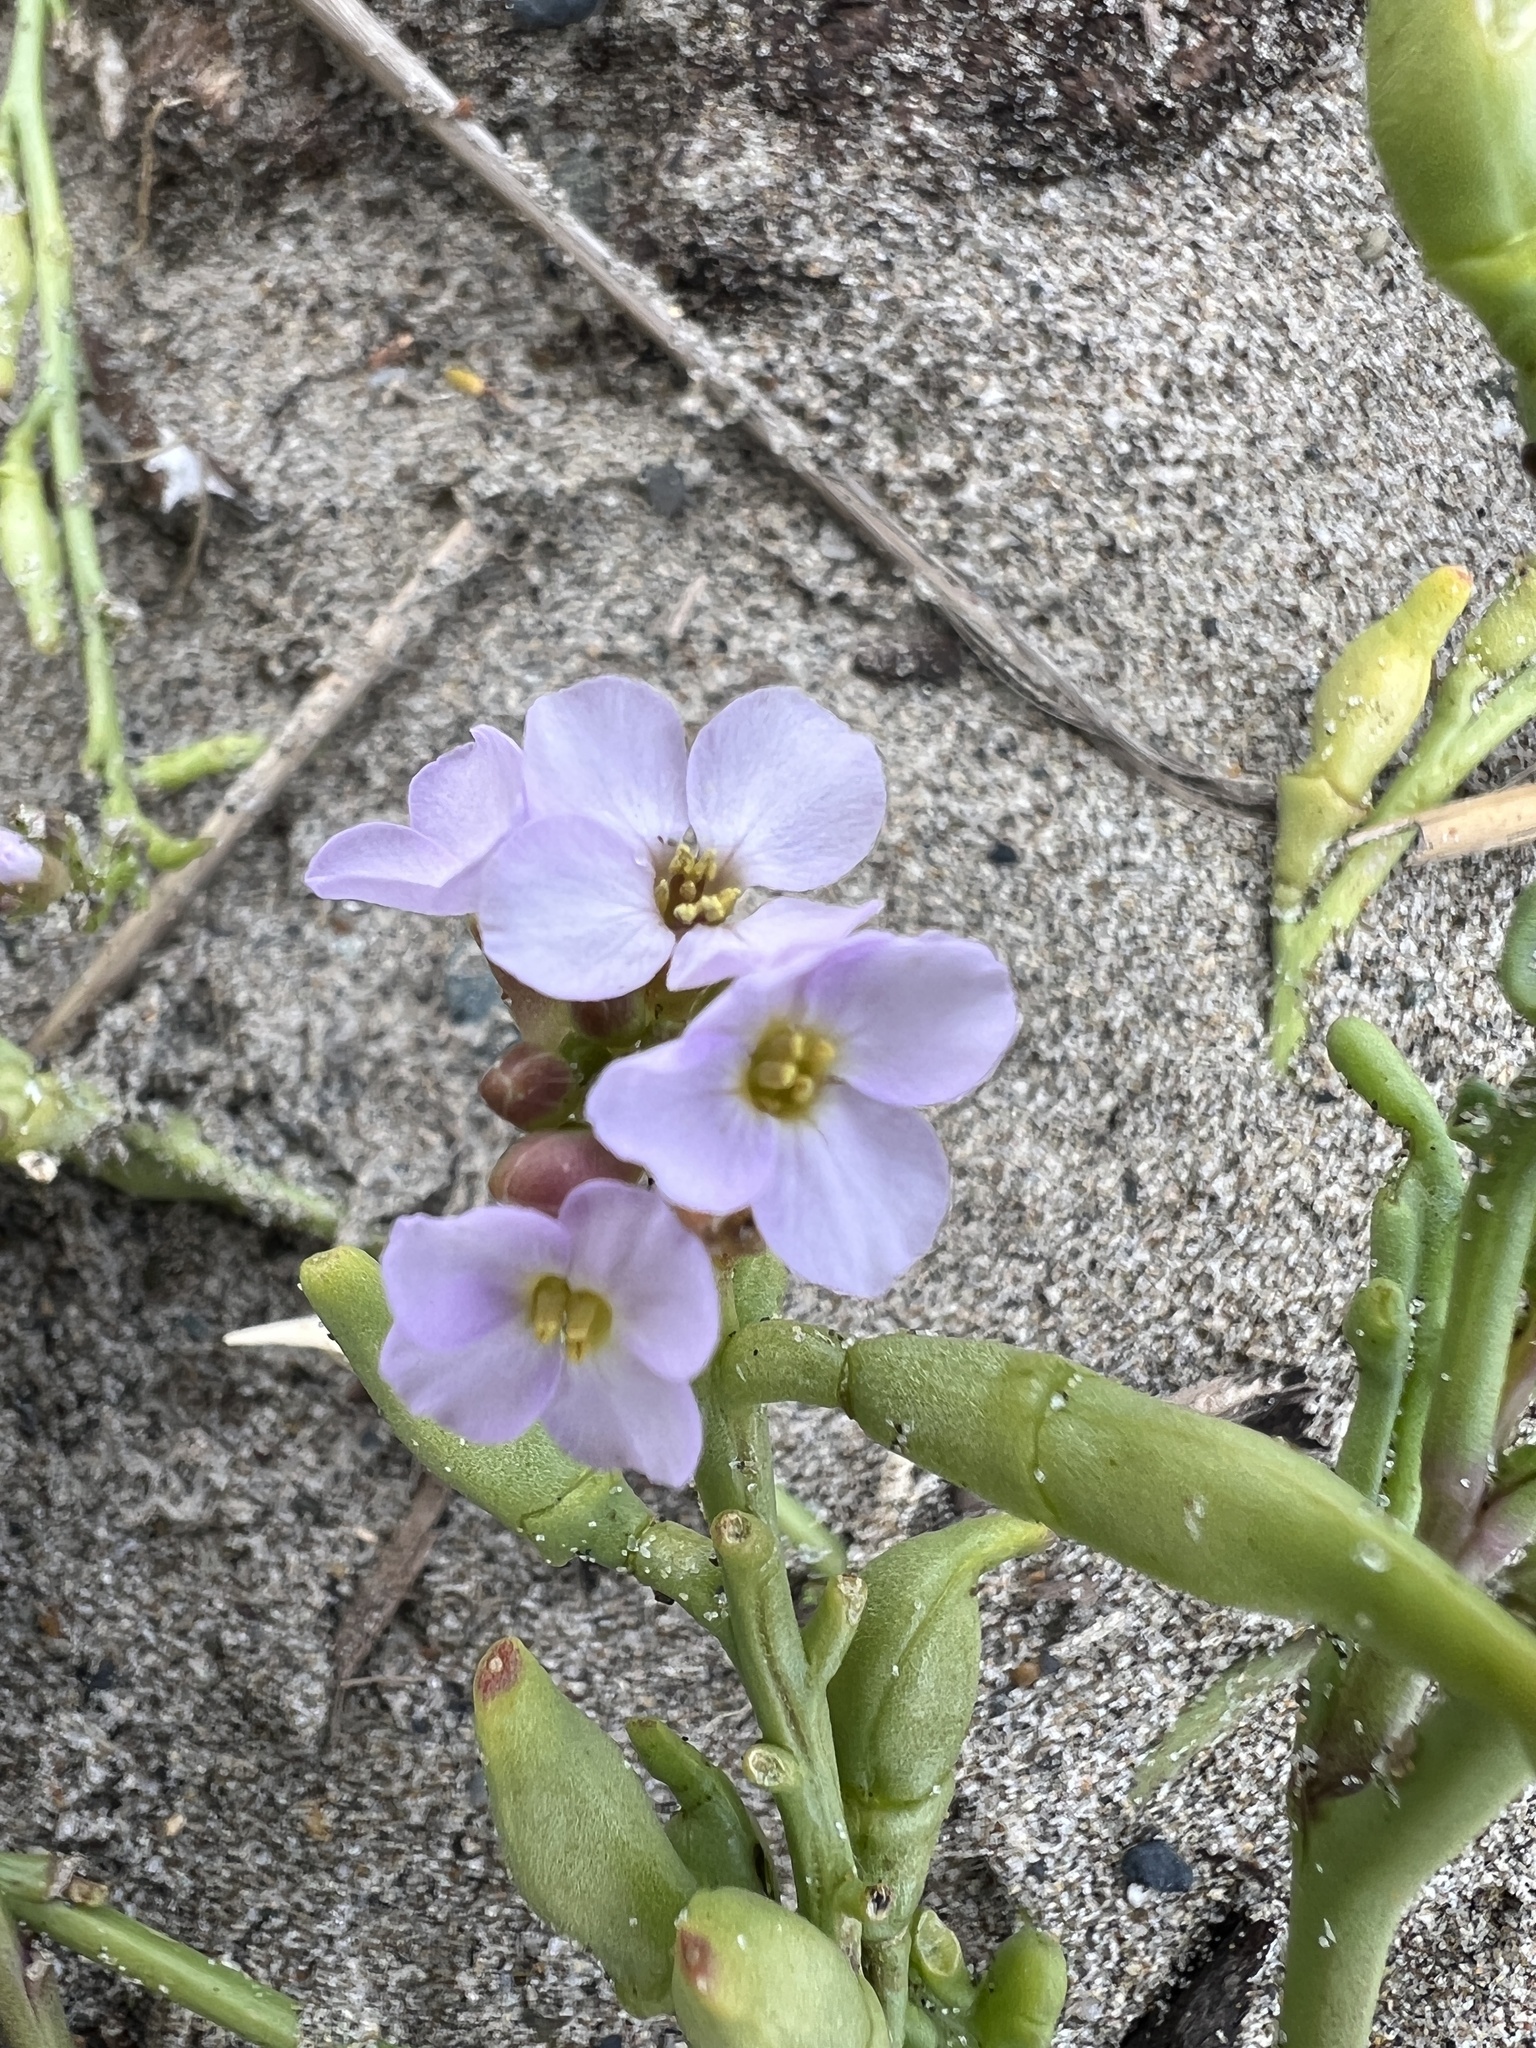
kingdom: Plantae
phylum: Tracheophyta
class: Magnoliopsida
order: Brassicales
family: Brassicaceae
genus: Cakile
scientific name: Cakile maritima
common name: Sea rocket
